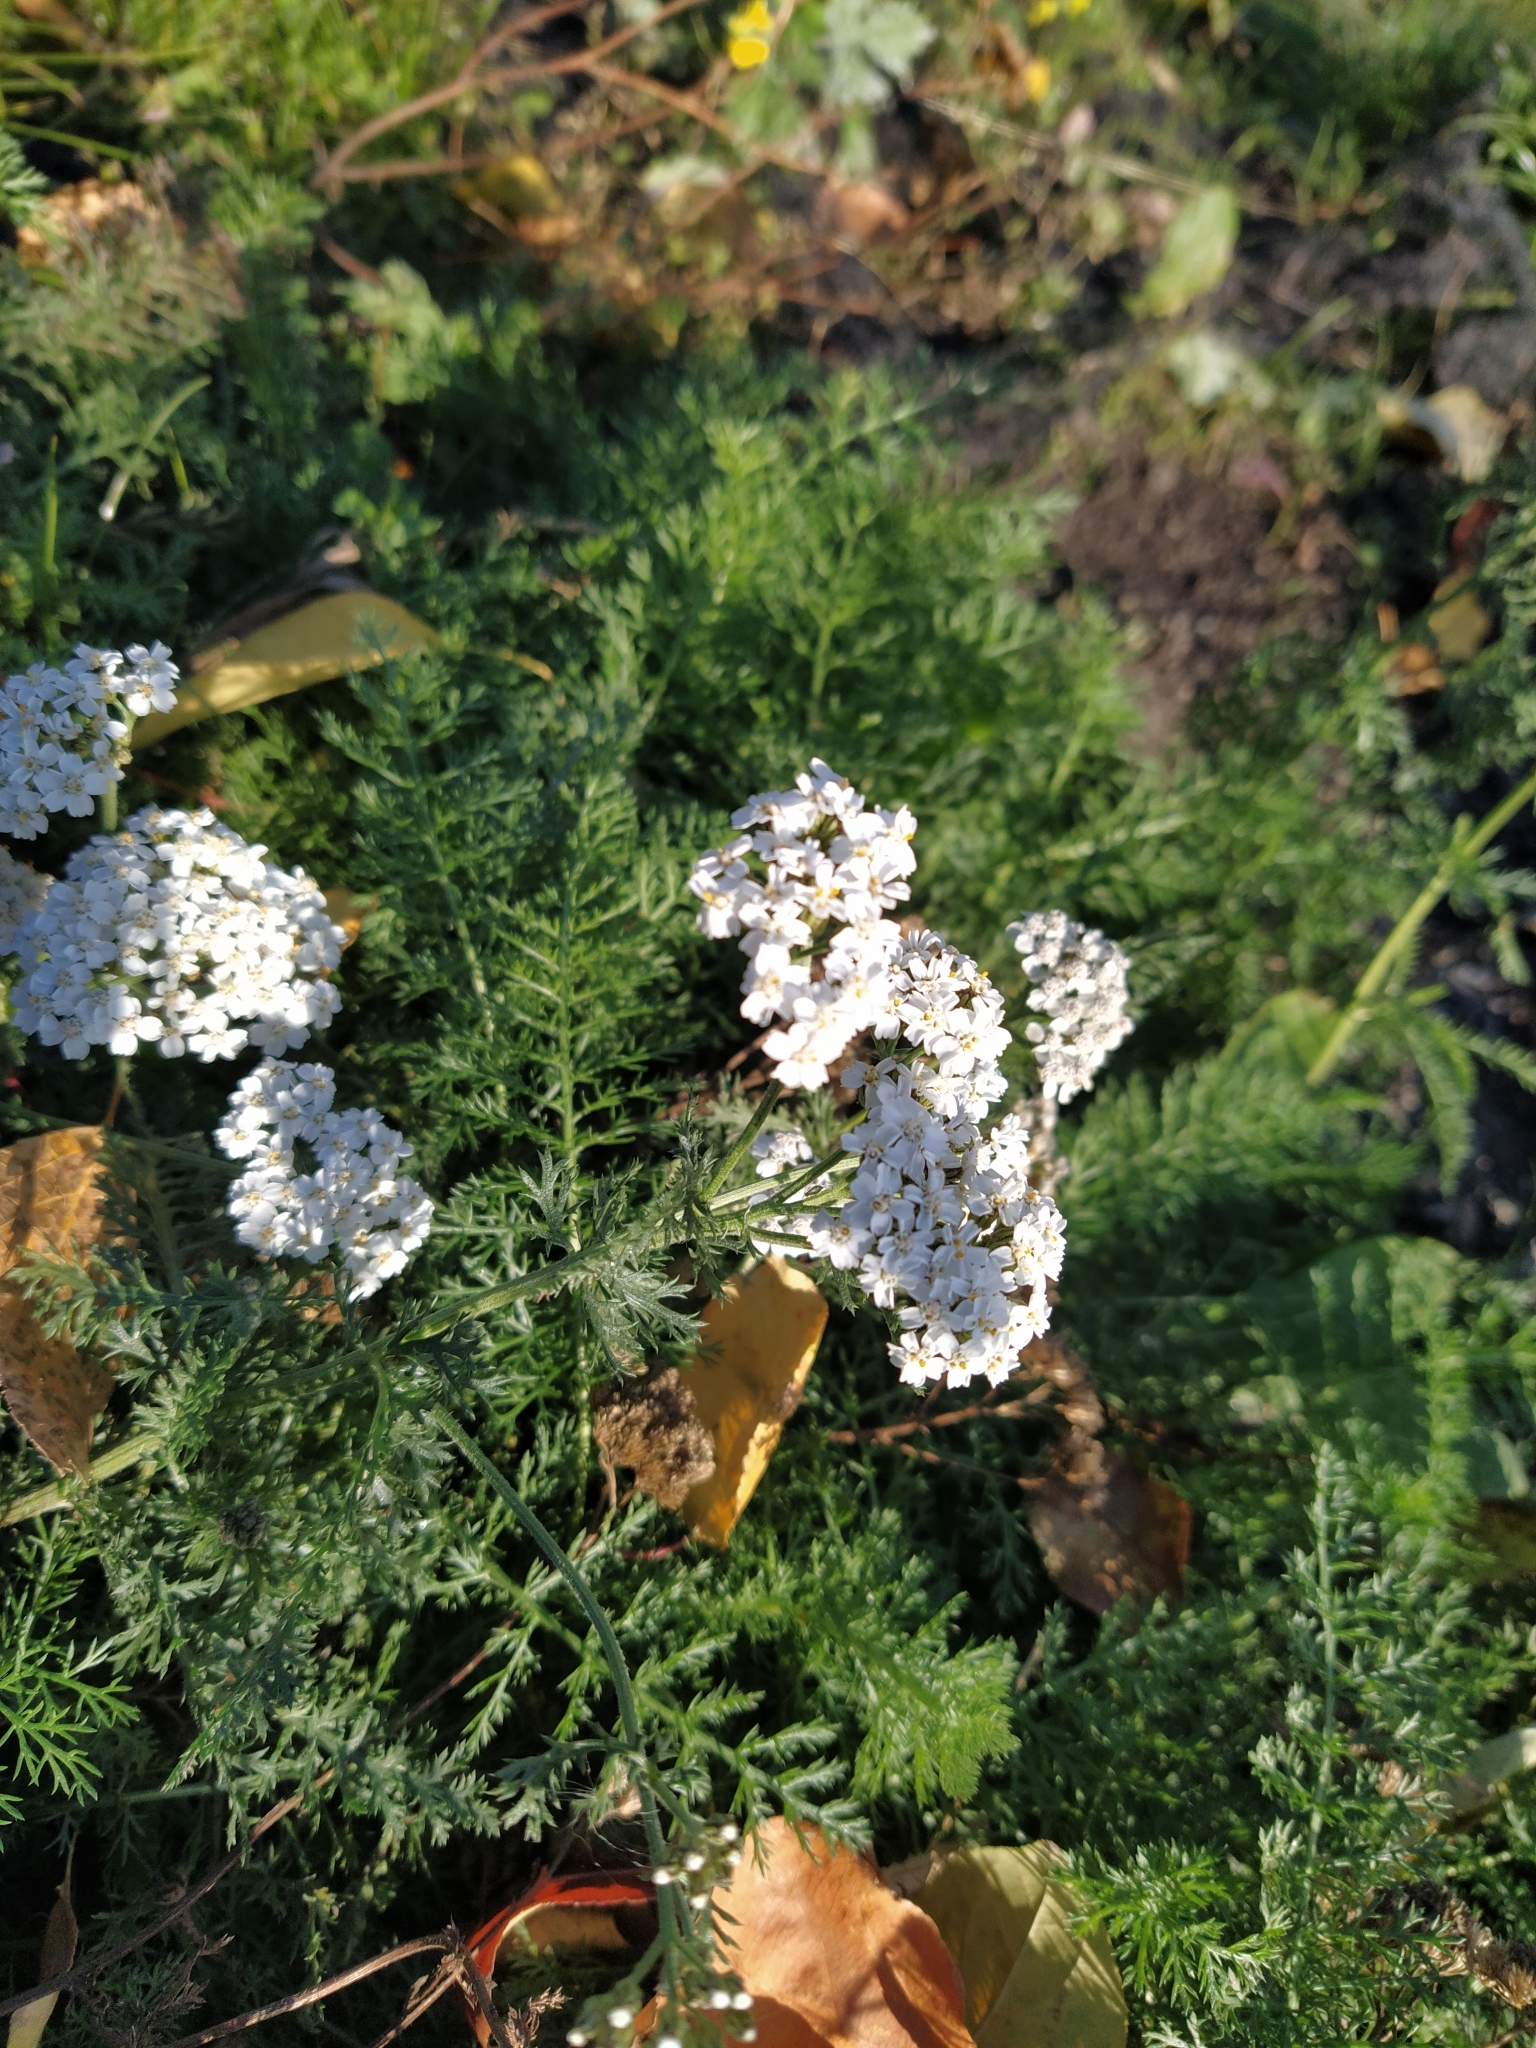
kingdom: Plantae
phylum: Tracheophyta
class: Magnoliopsida
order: Asterales
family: Asteraceae
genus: Achillea
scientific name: Achillea millefolium
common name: Yarrow
